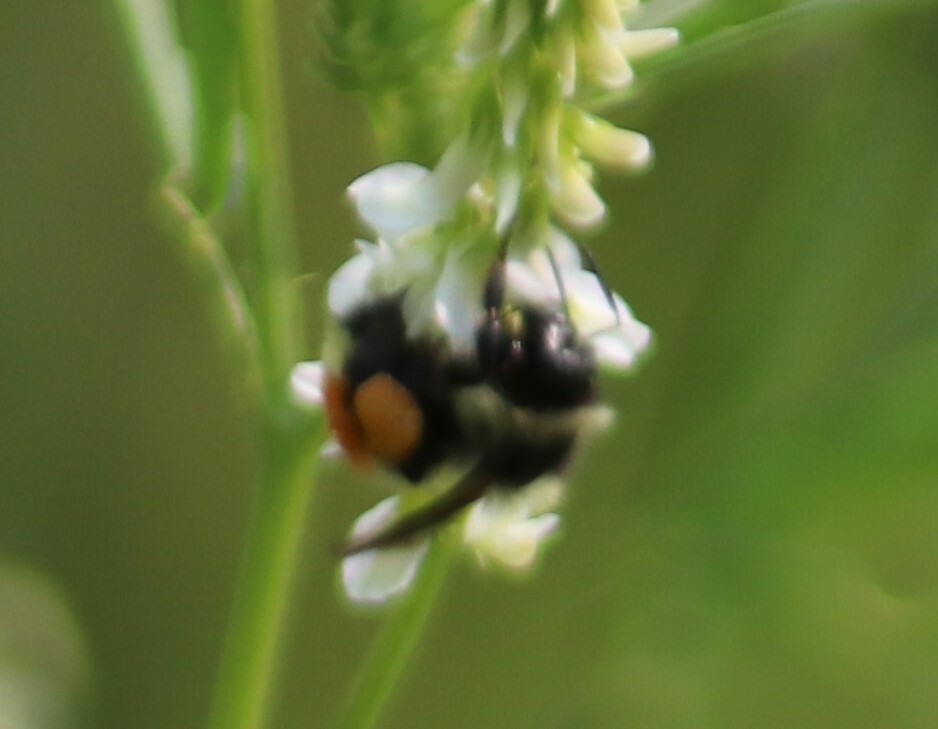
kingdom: Animalia
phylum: Arthropoda
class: Insecta
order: Hymenoptera
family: Apidae
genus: Bombus
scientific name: Bombus ternarius
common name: Tri-colored bumble bee
